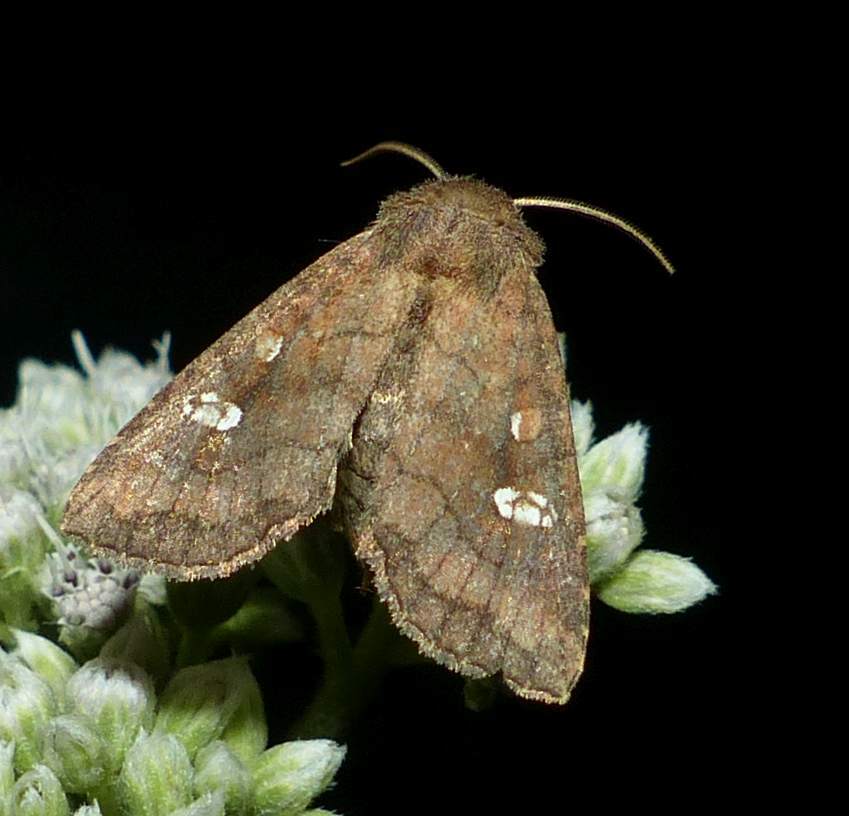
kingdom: Animalia
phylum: Arthropoda
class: Insecta
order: Lepidoptera
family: Noctuidae
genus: Tricholita
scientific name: Tricholita signata
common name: Signate quaker
